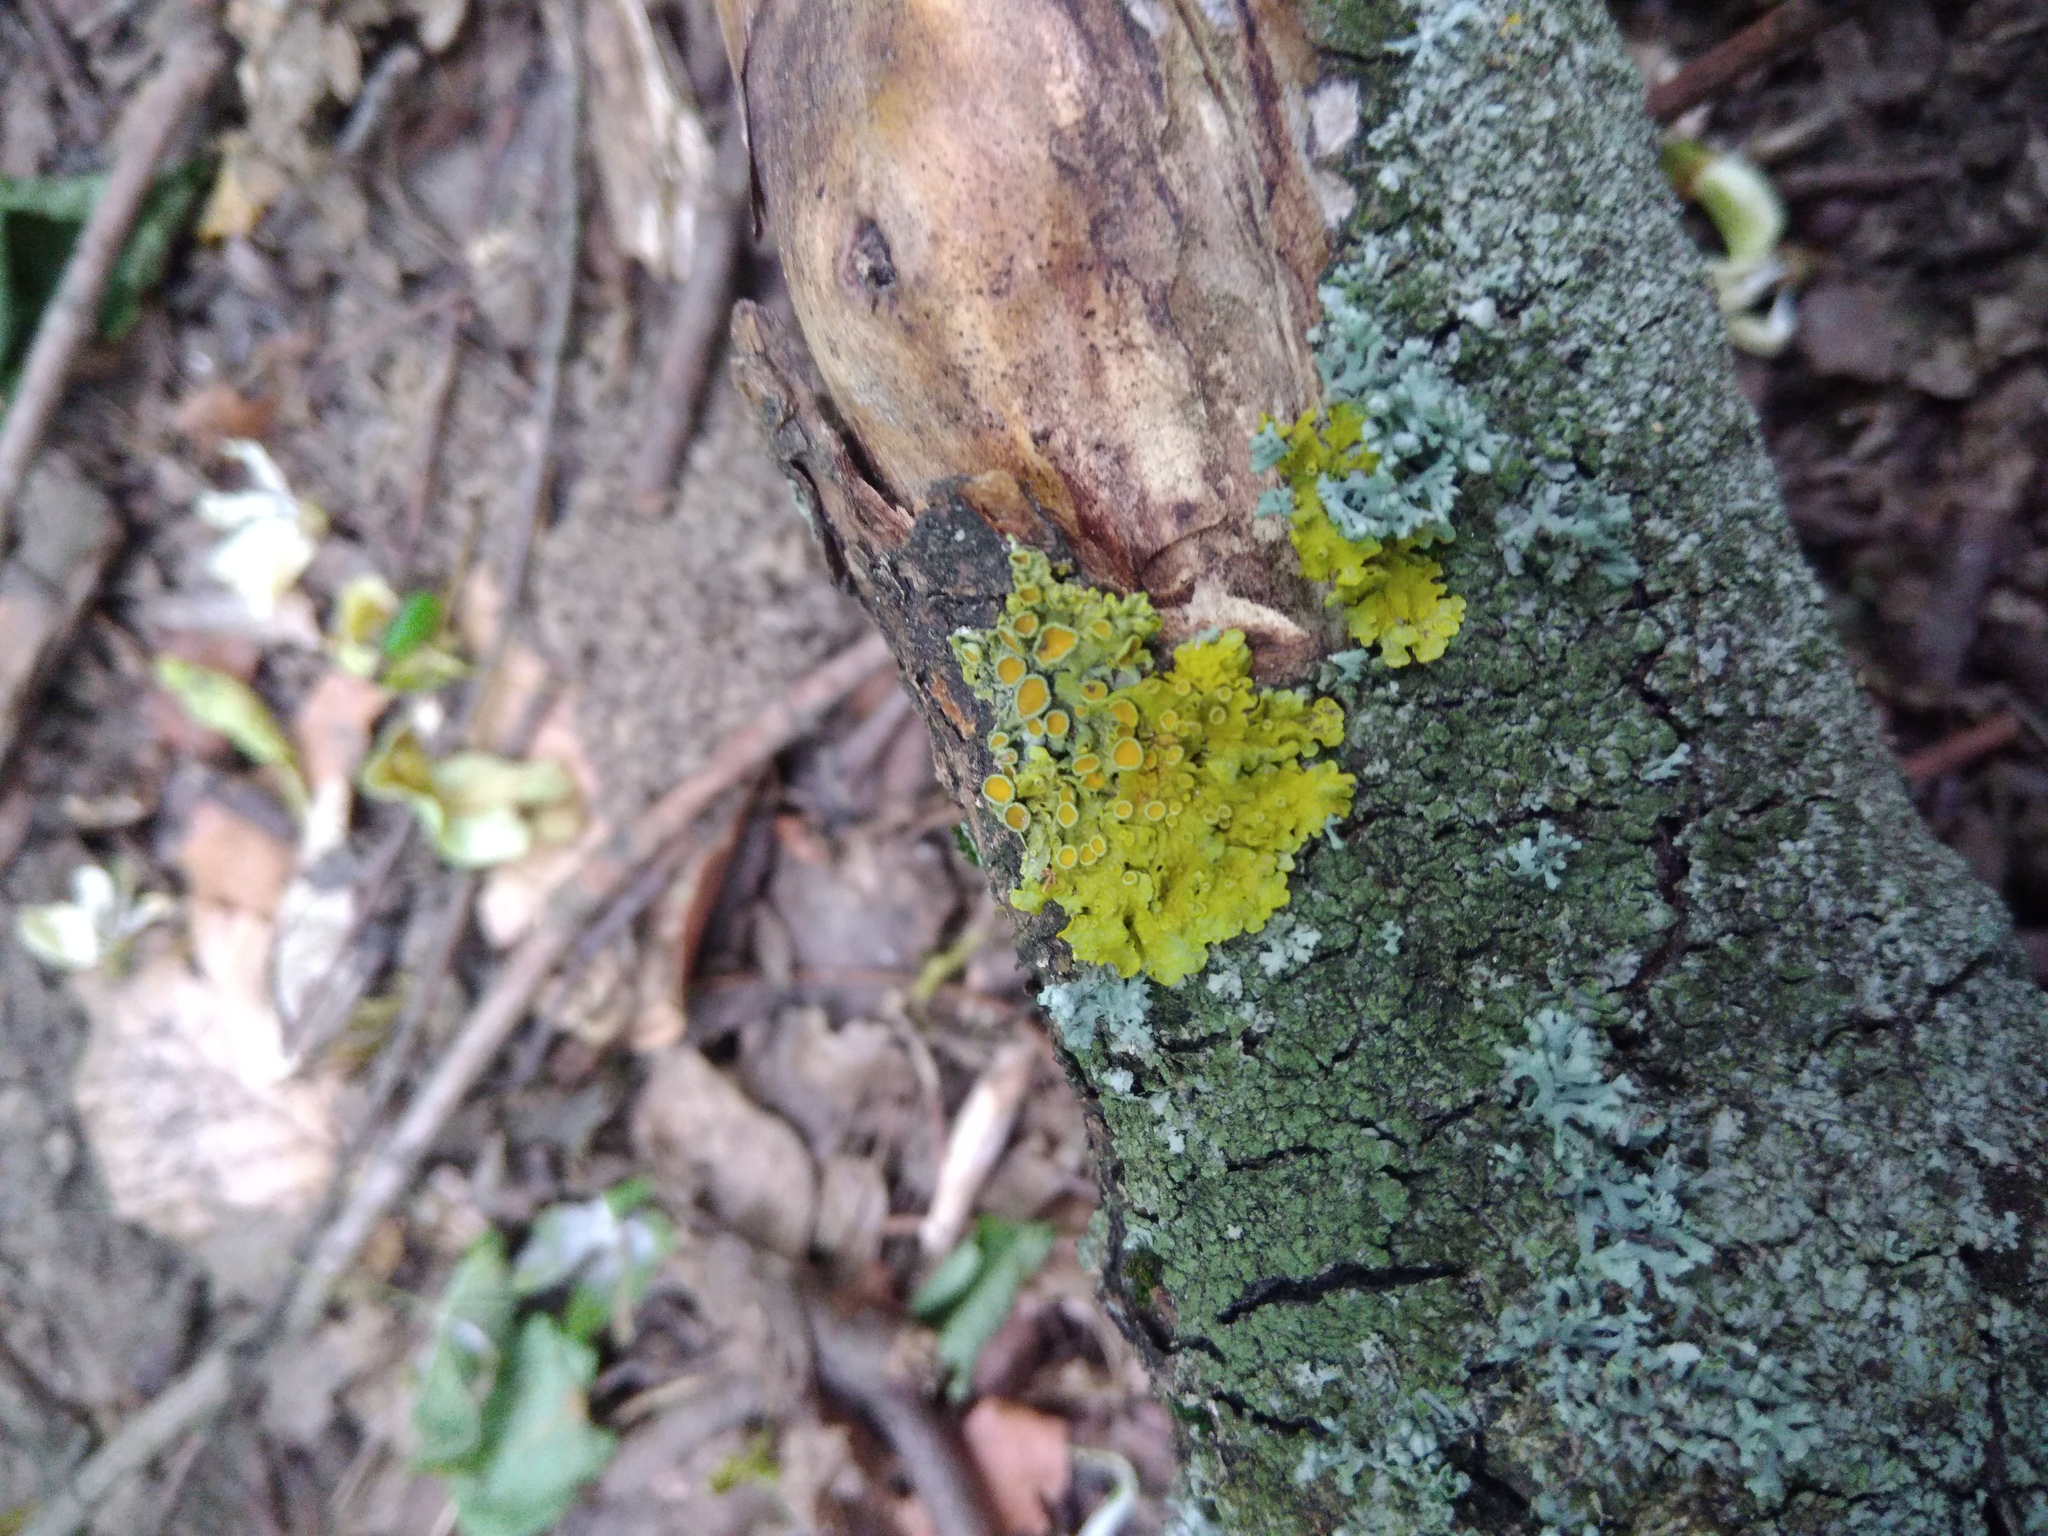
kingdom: Fungi
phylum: Ascomycota
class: Lecanoromycetes
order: Teloschistales
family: Teloschistaceae
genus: Xanthoria
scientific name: Xanthoria parietina
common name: Common orange lichen
